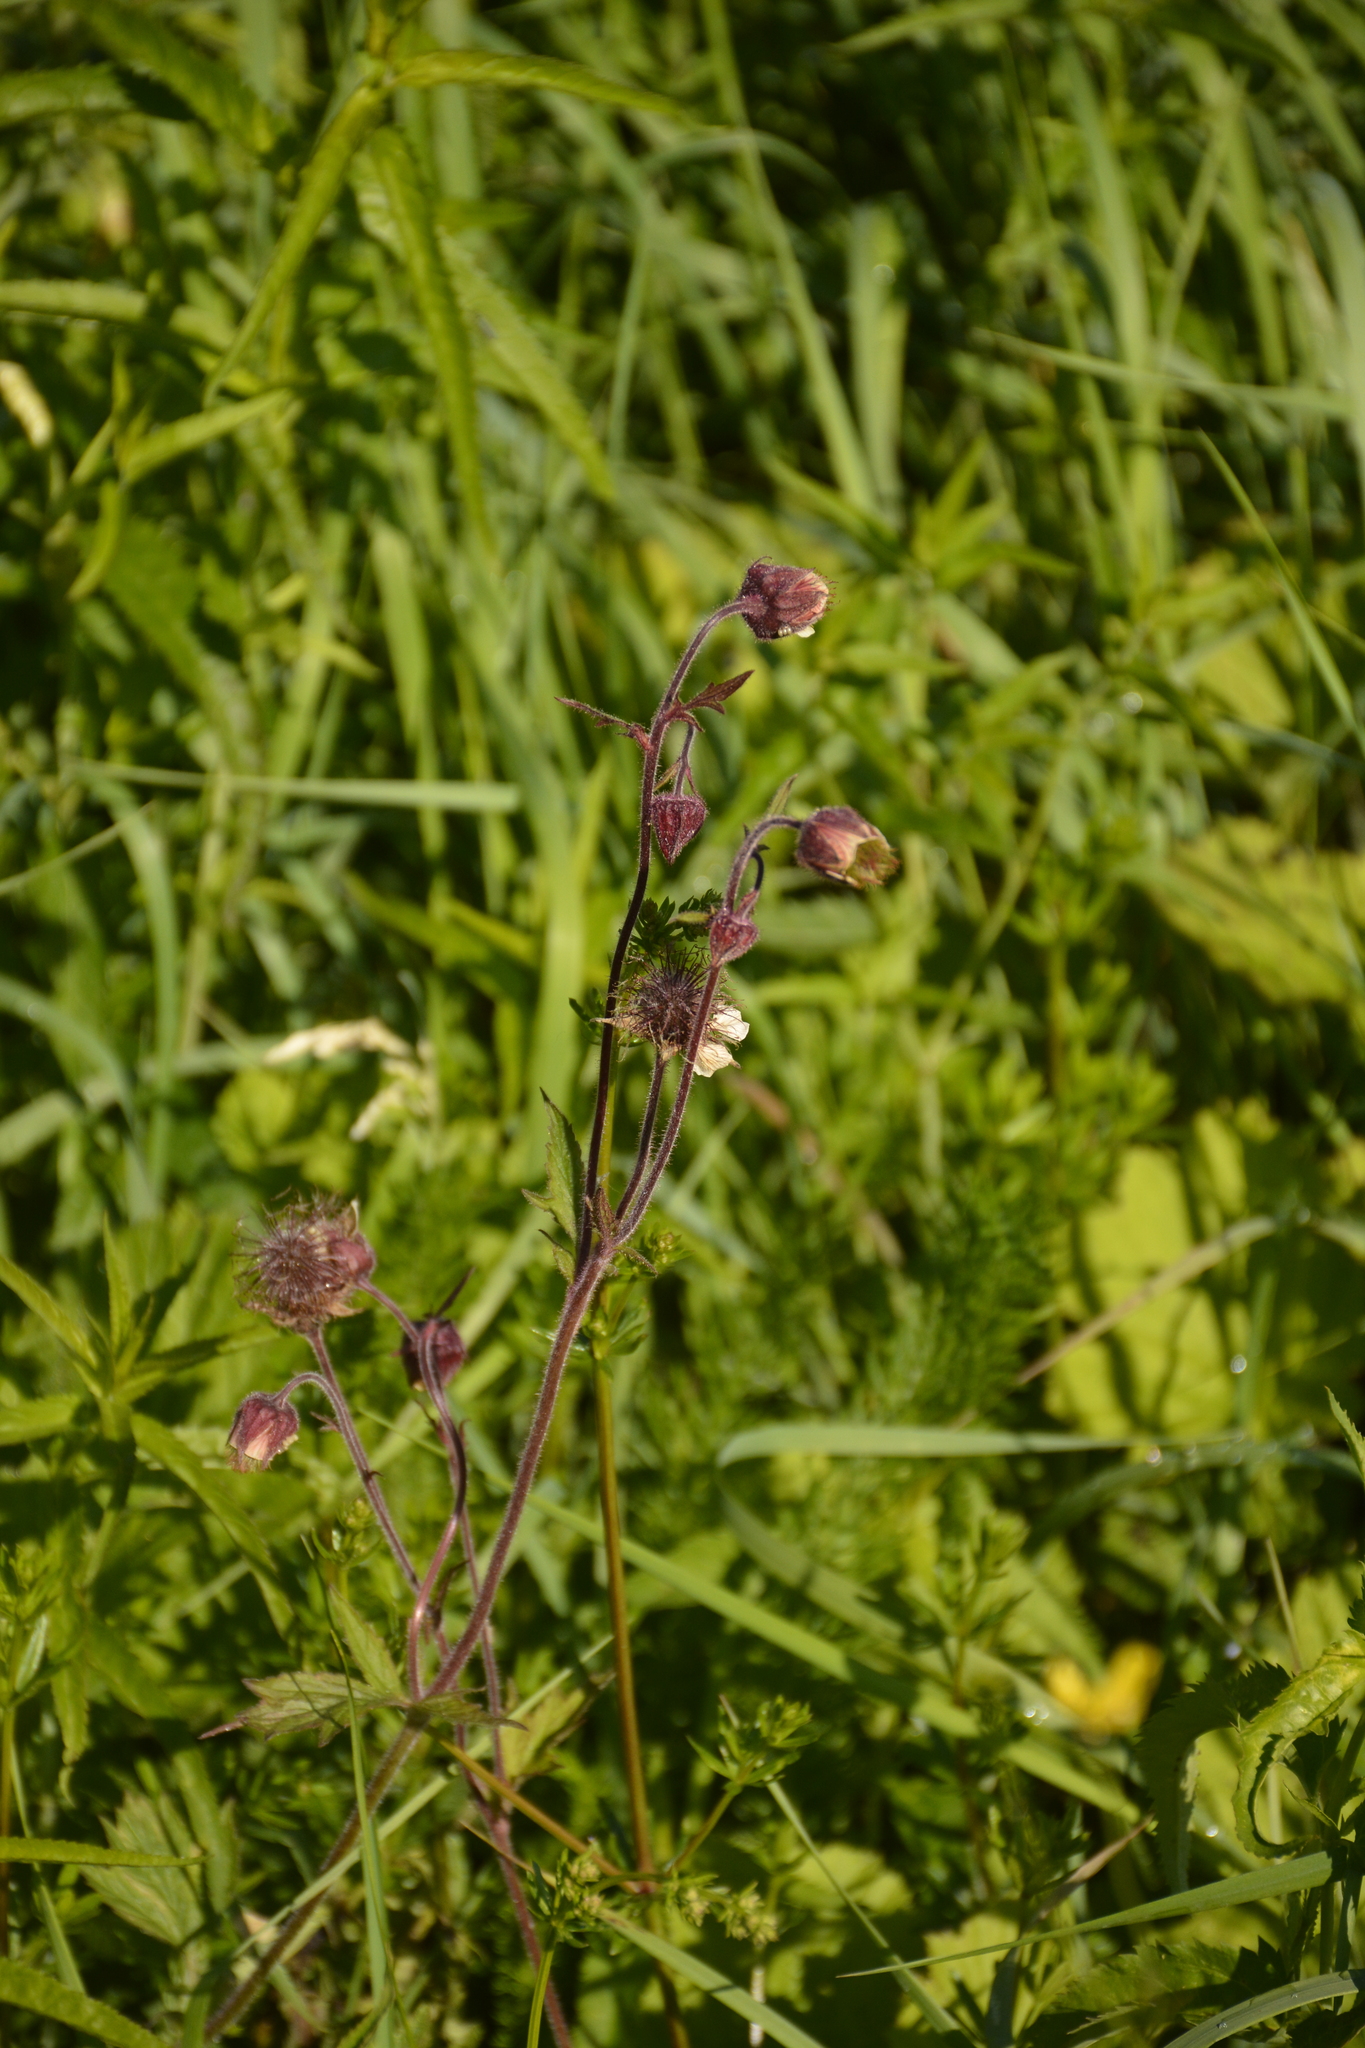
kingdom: Plantae
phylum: Tracheophyta
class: Magnoliopsida
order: Rosales
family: Rosaceae
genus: Geum
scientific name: Geum rivale
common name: Water avens
